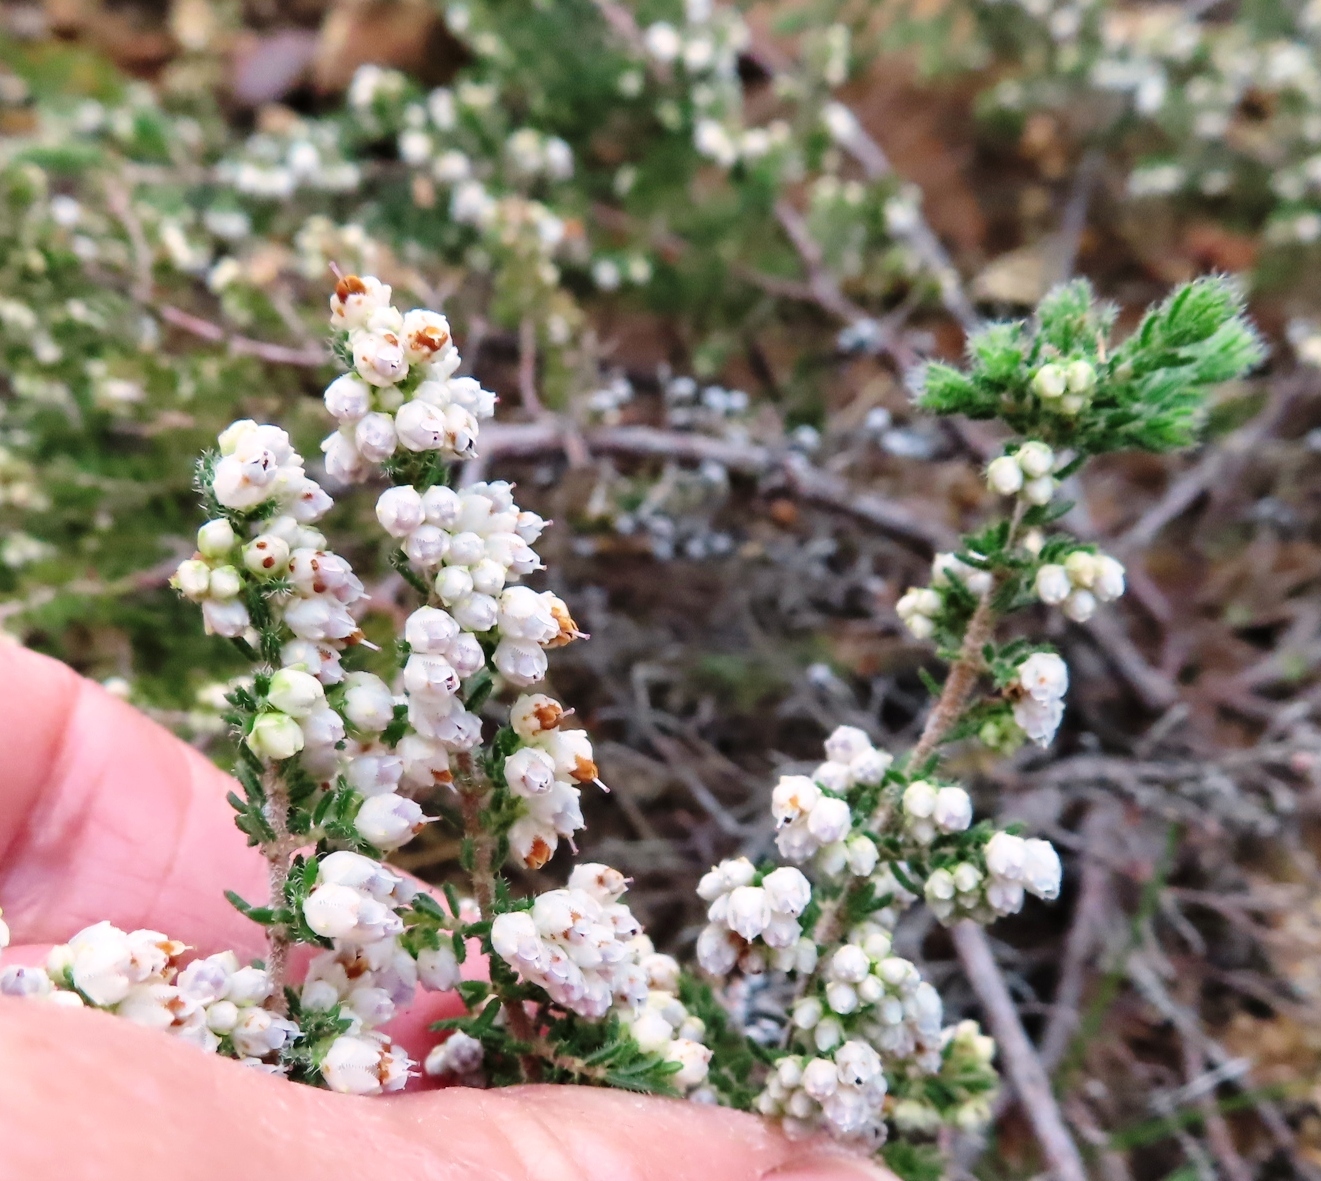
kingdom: Plantae
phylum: Tracheophyta
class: Magnoliopsida
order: Ericales
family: Ericaceae
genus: Erica
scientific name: Erica totta
